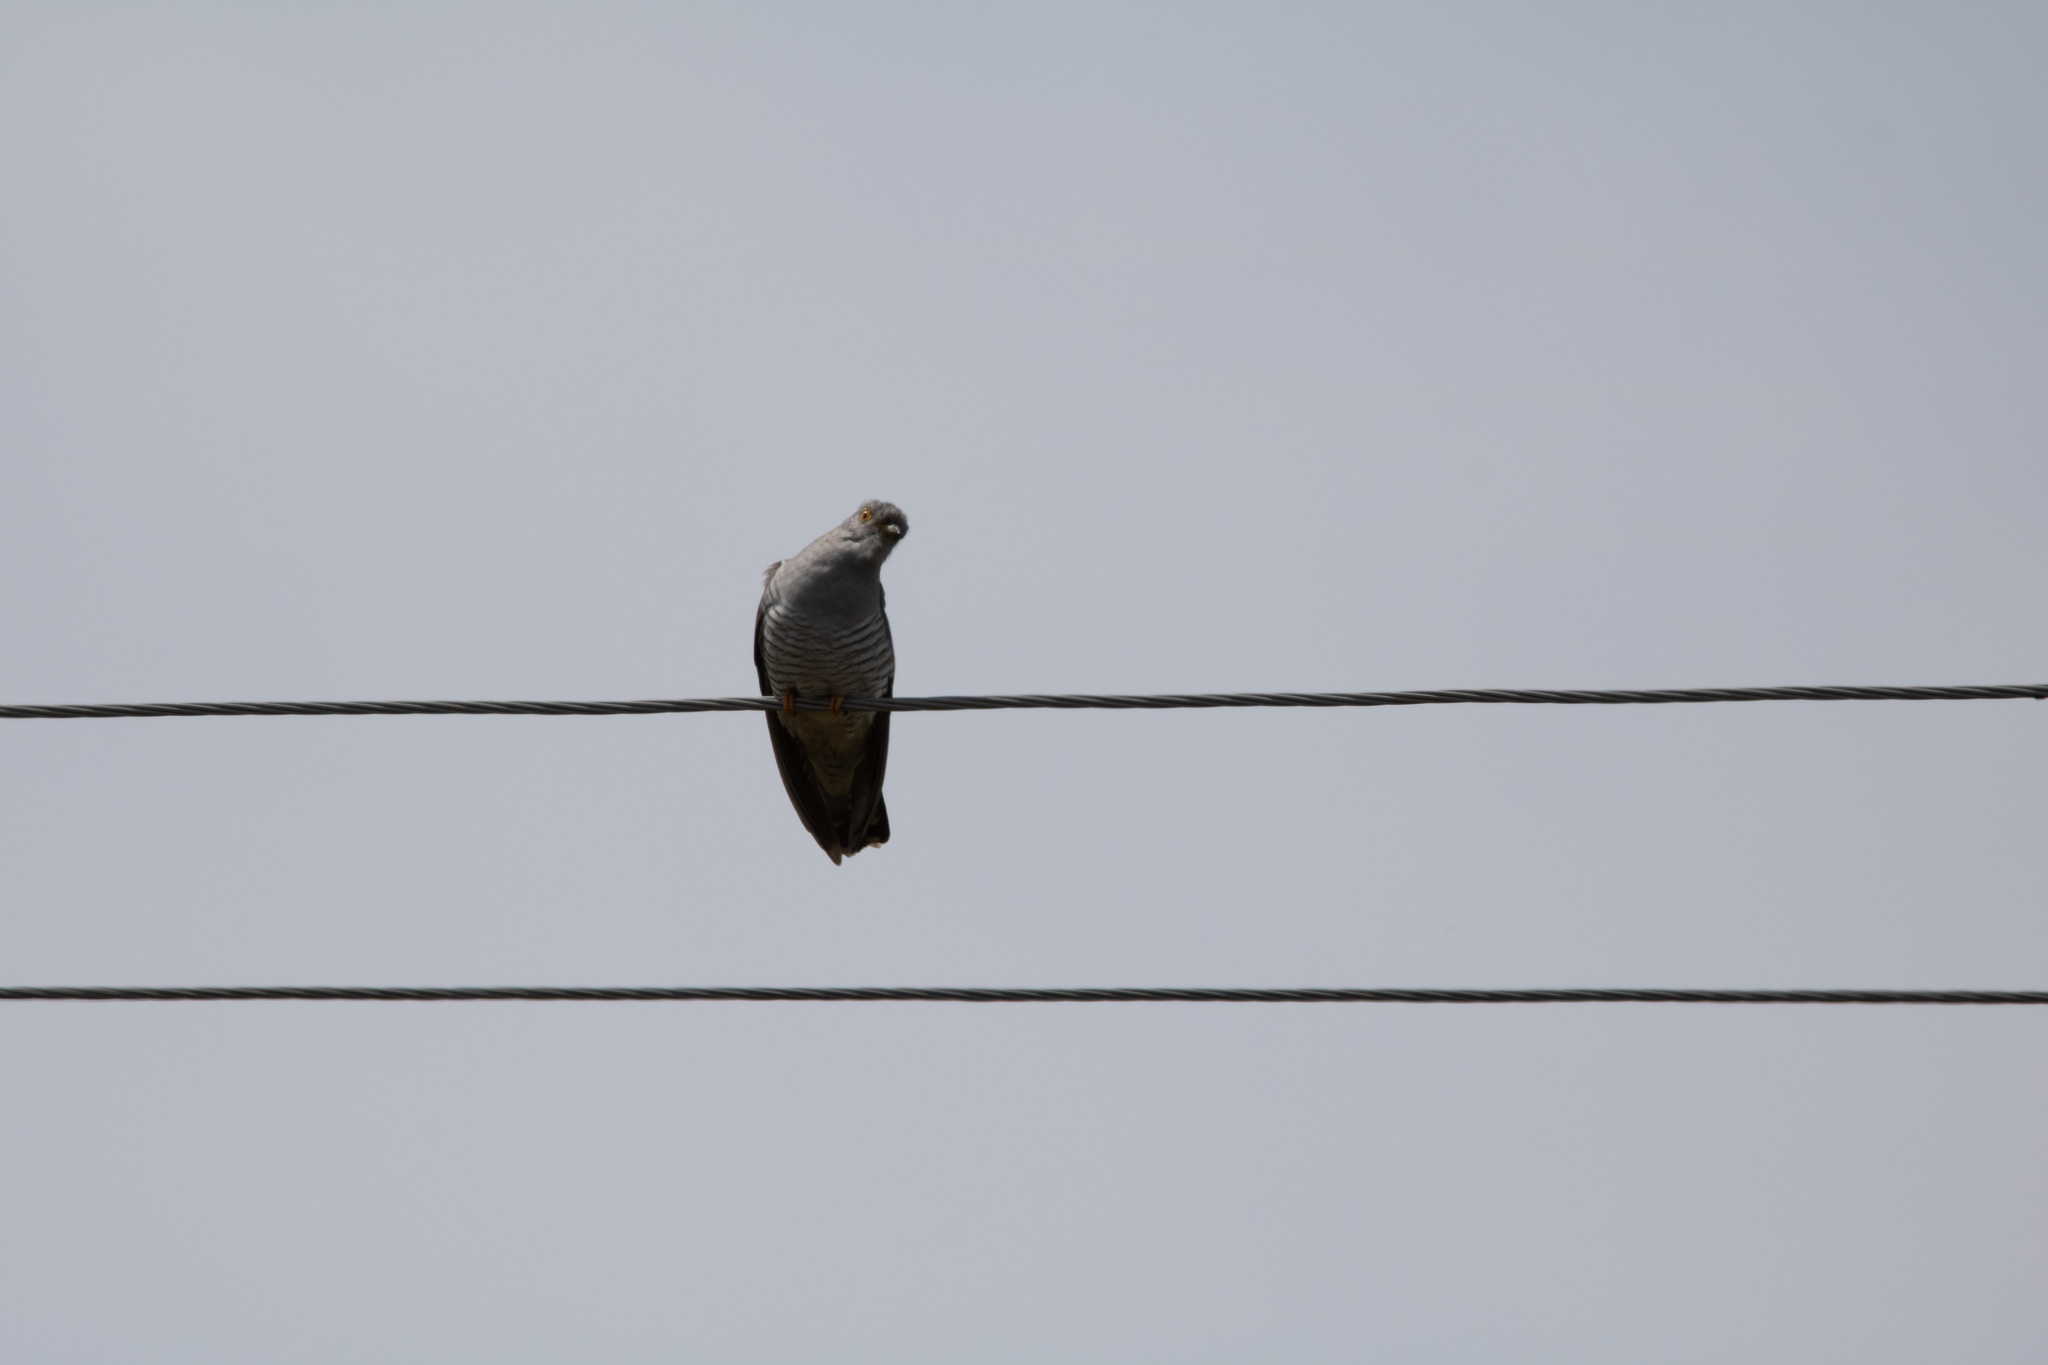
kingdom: Animalia
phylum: Chordata
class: Aves
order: Cuculiformes
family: Cuculidae
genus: Cuculus
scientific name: Cuculus canorus
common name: Common cuckoo
